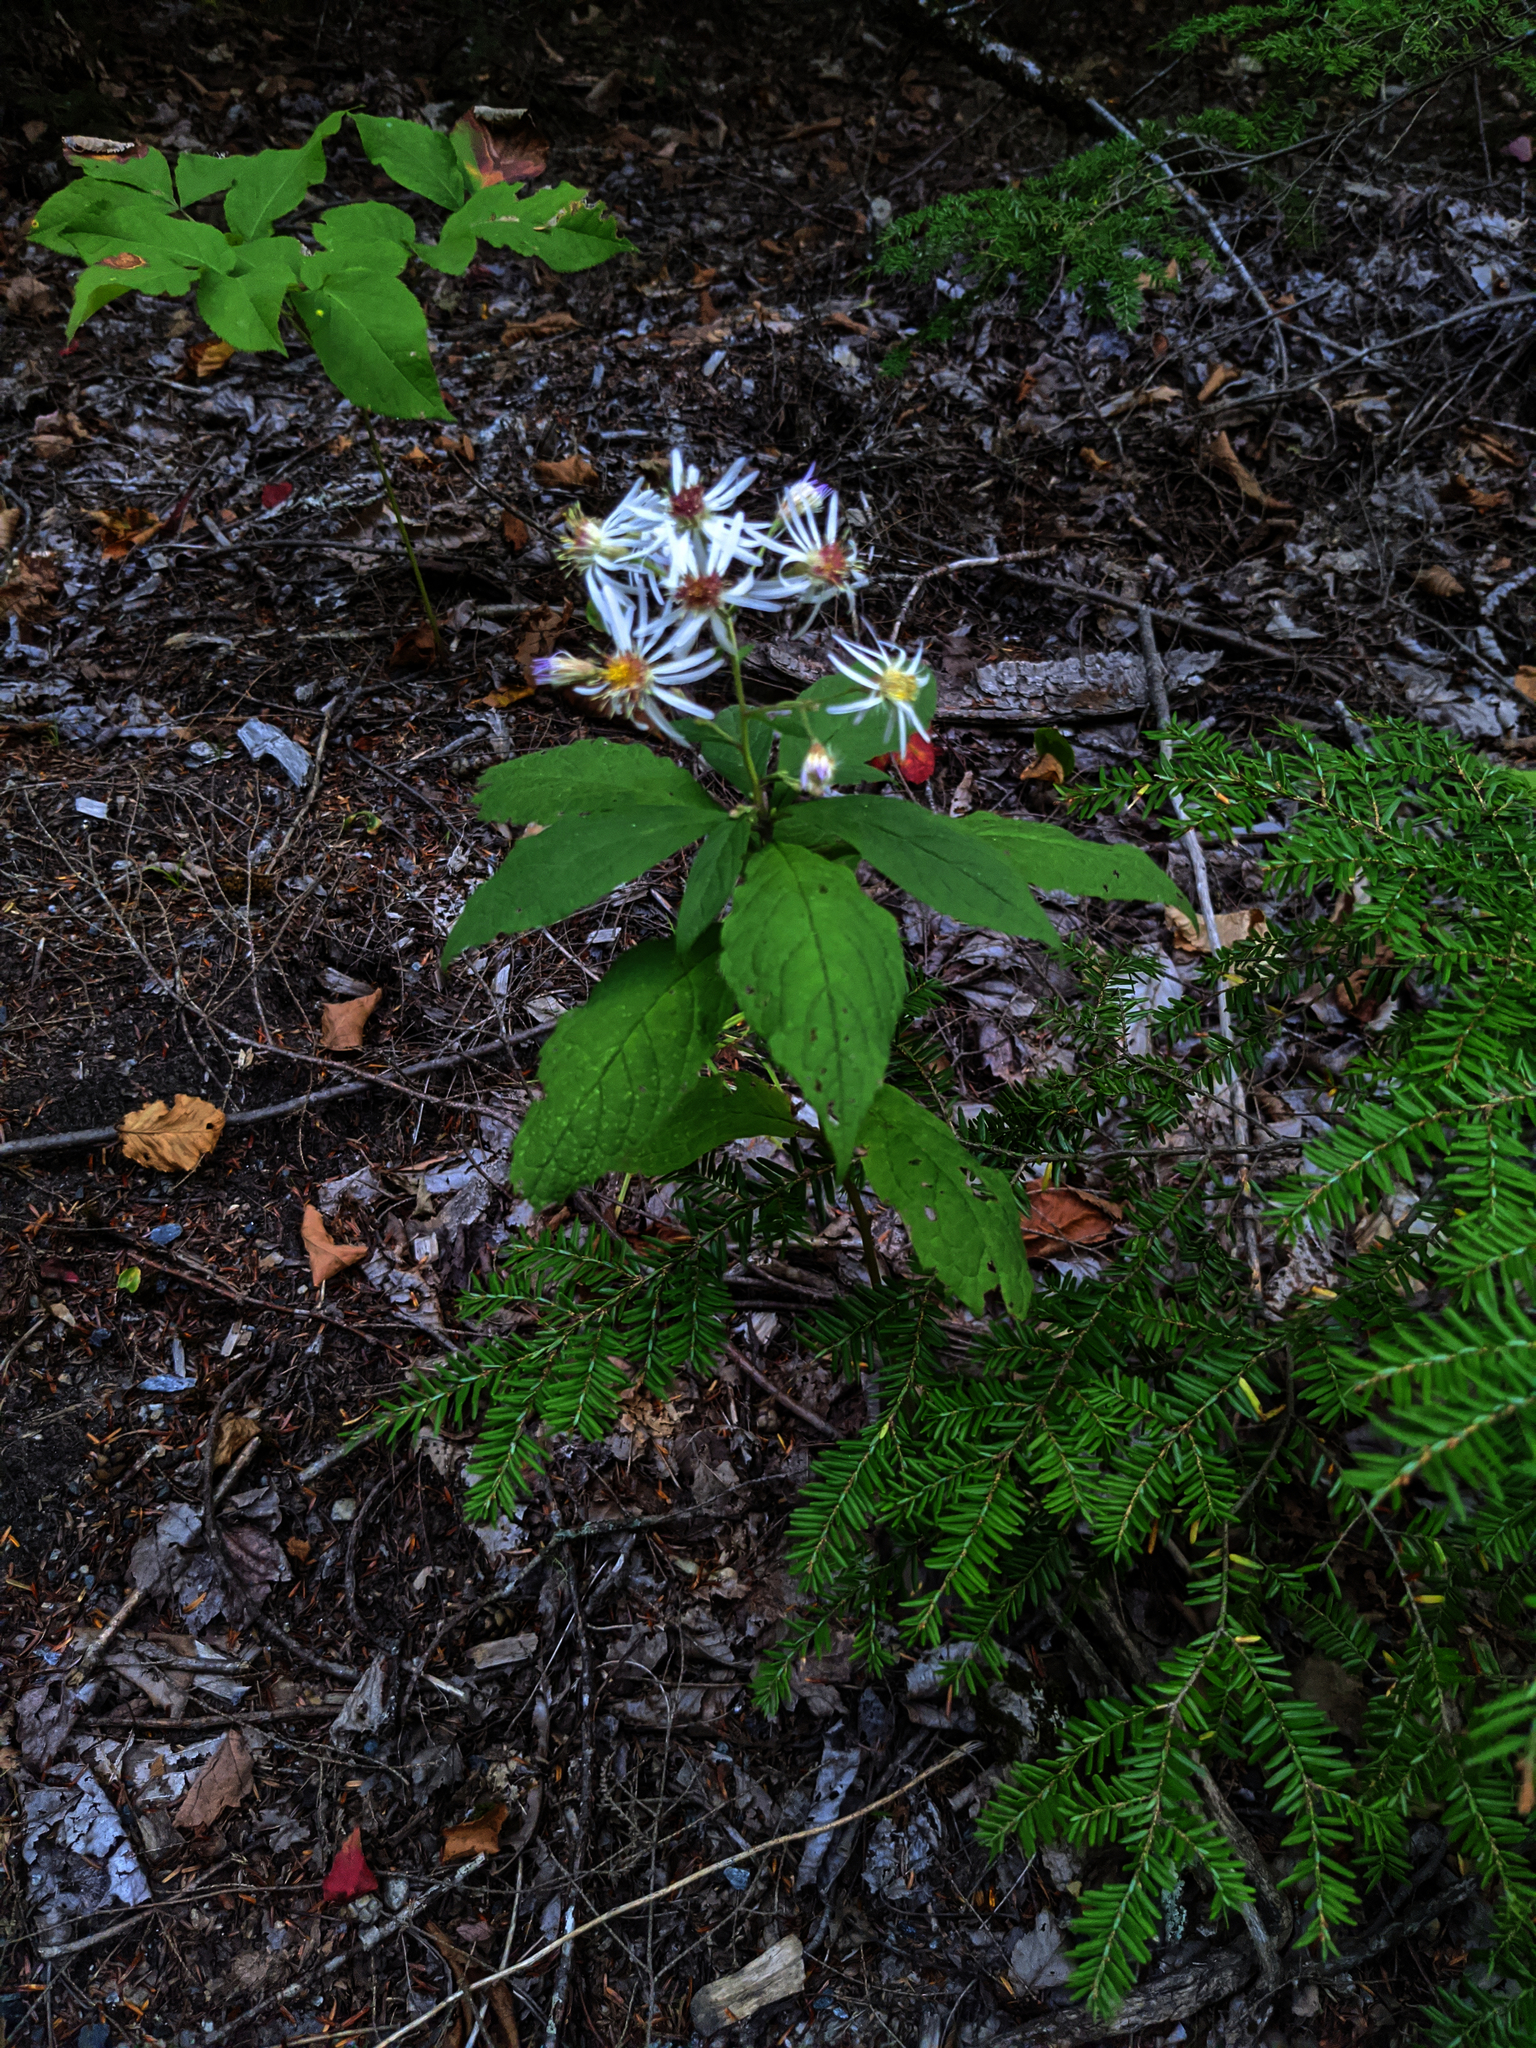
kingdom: Plantae
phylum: Tracheophyta
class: Magnoliopsida
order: Asterales
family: Asteraceae
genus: Oclemena
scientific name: Oclemena acuminata
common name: Mountain aster
